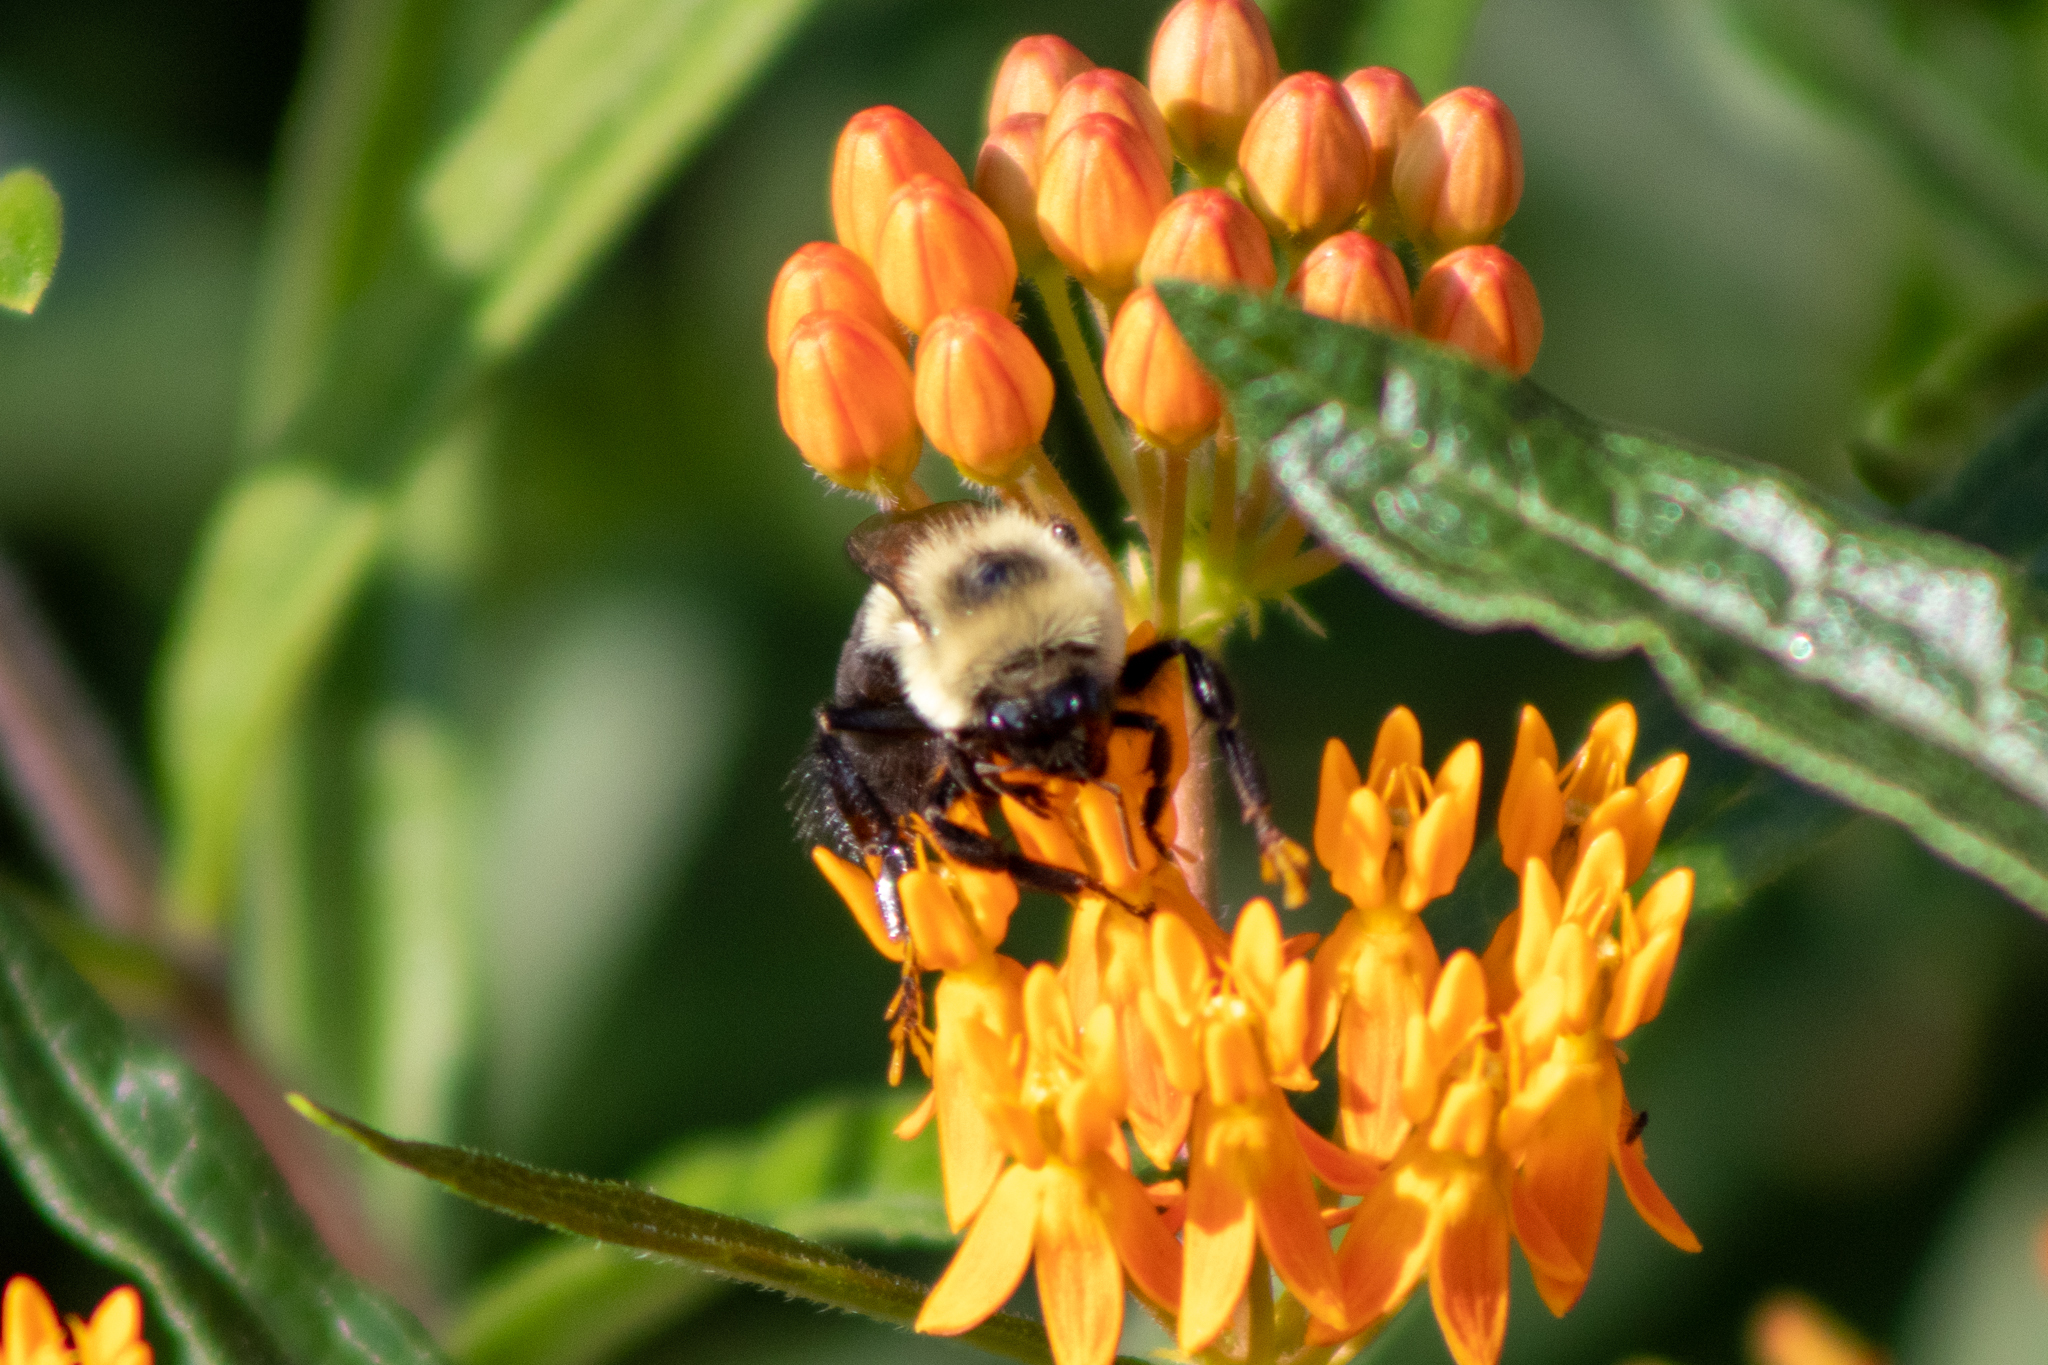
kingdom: Animalia
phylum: Arthropoda
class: Insecta
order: Hymenoptera
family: Apidae
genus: Bombus
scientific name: Bombus impatiens
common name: Common eastern bumble bee
